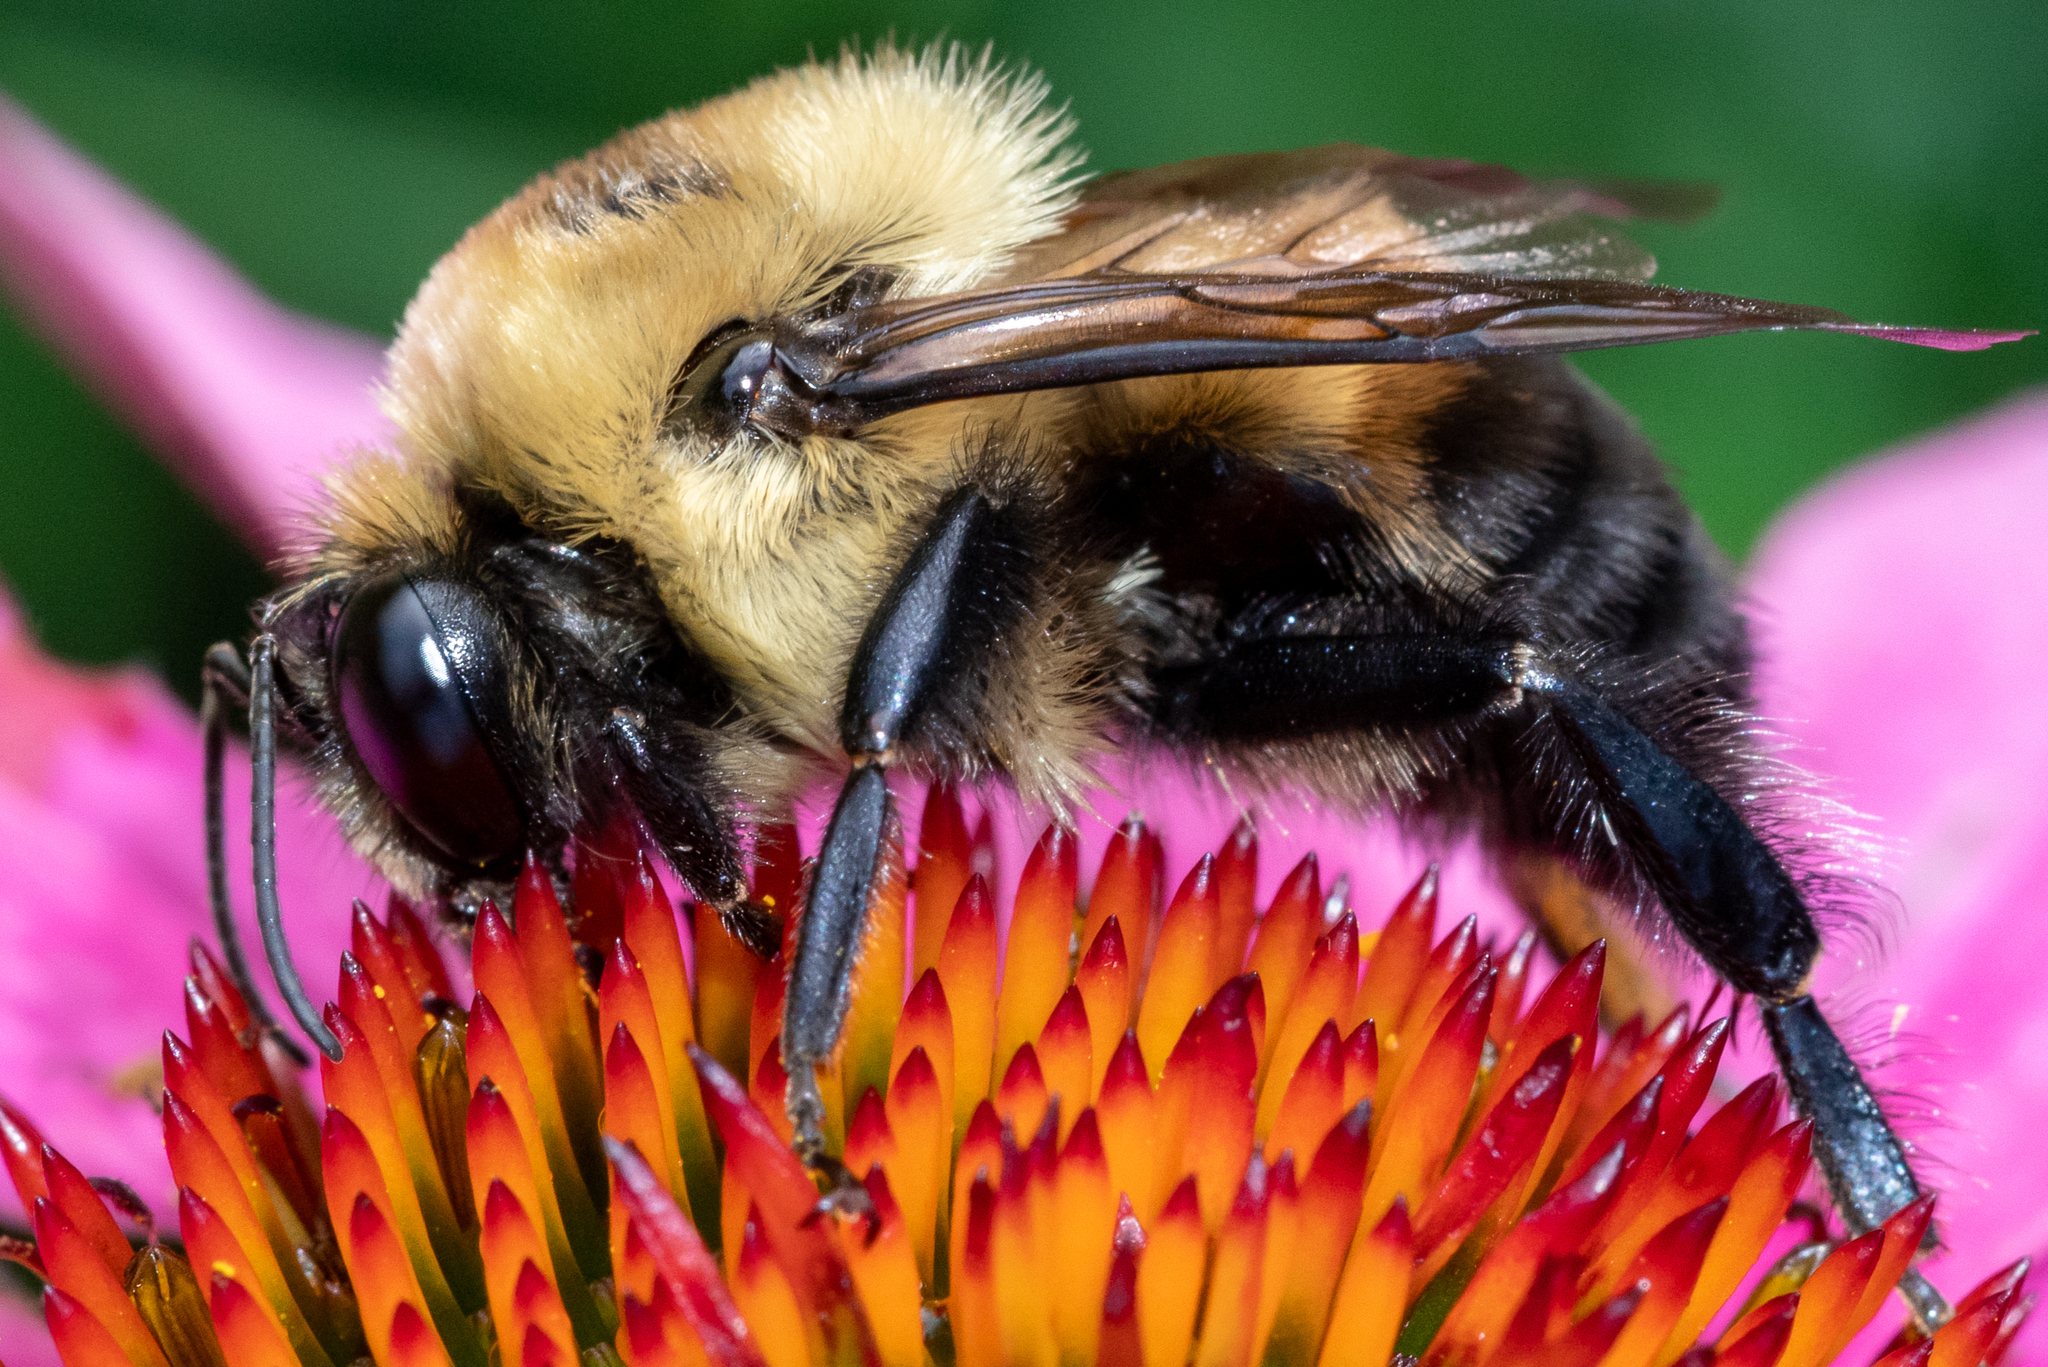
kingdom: Animalia
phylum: Arthropoda
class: Insecta
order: Hymenoptera
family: Apidae
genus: Bombus
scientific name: Bombus griseocollis
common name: Brown-belted bumble bee
